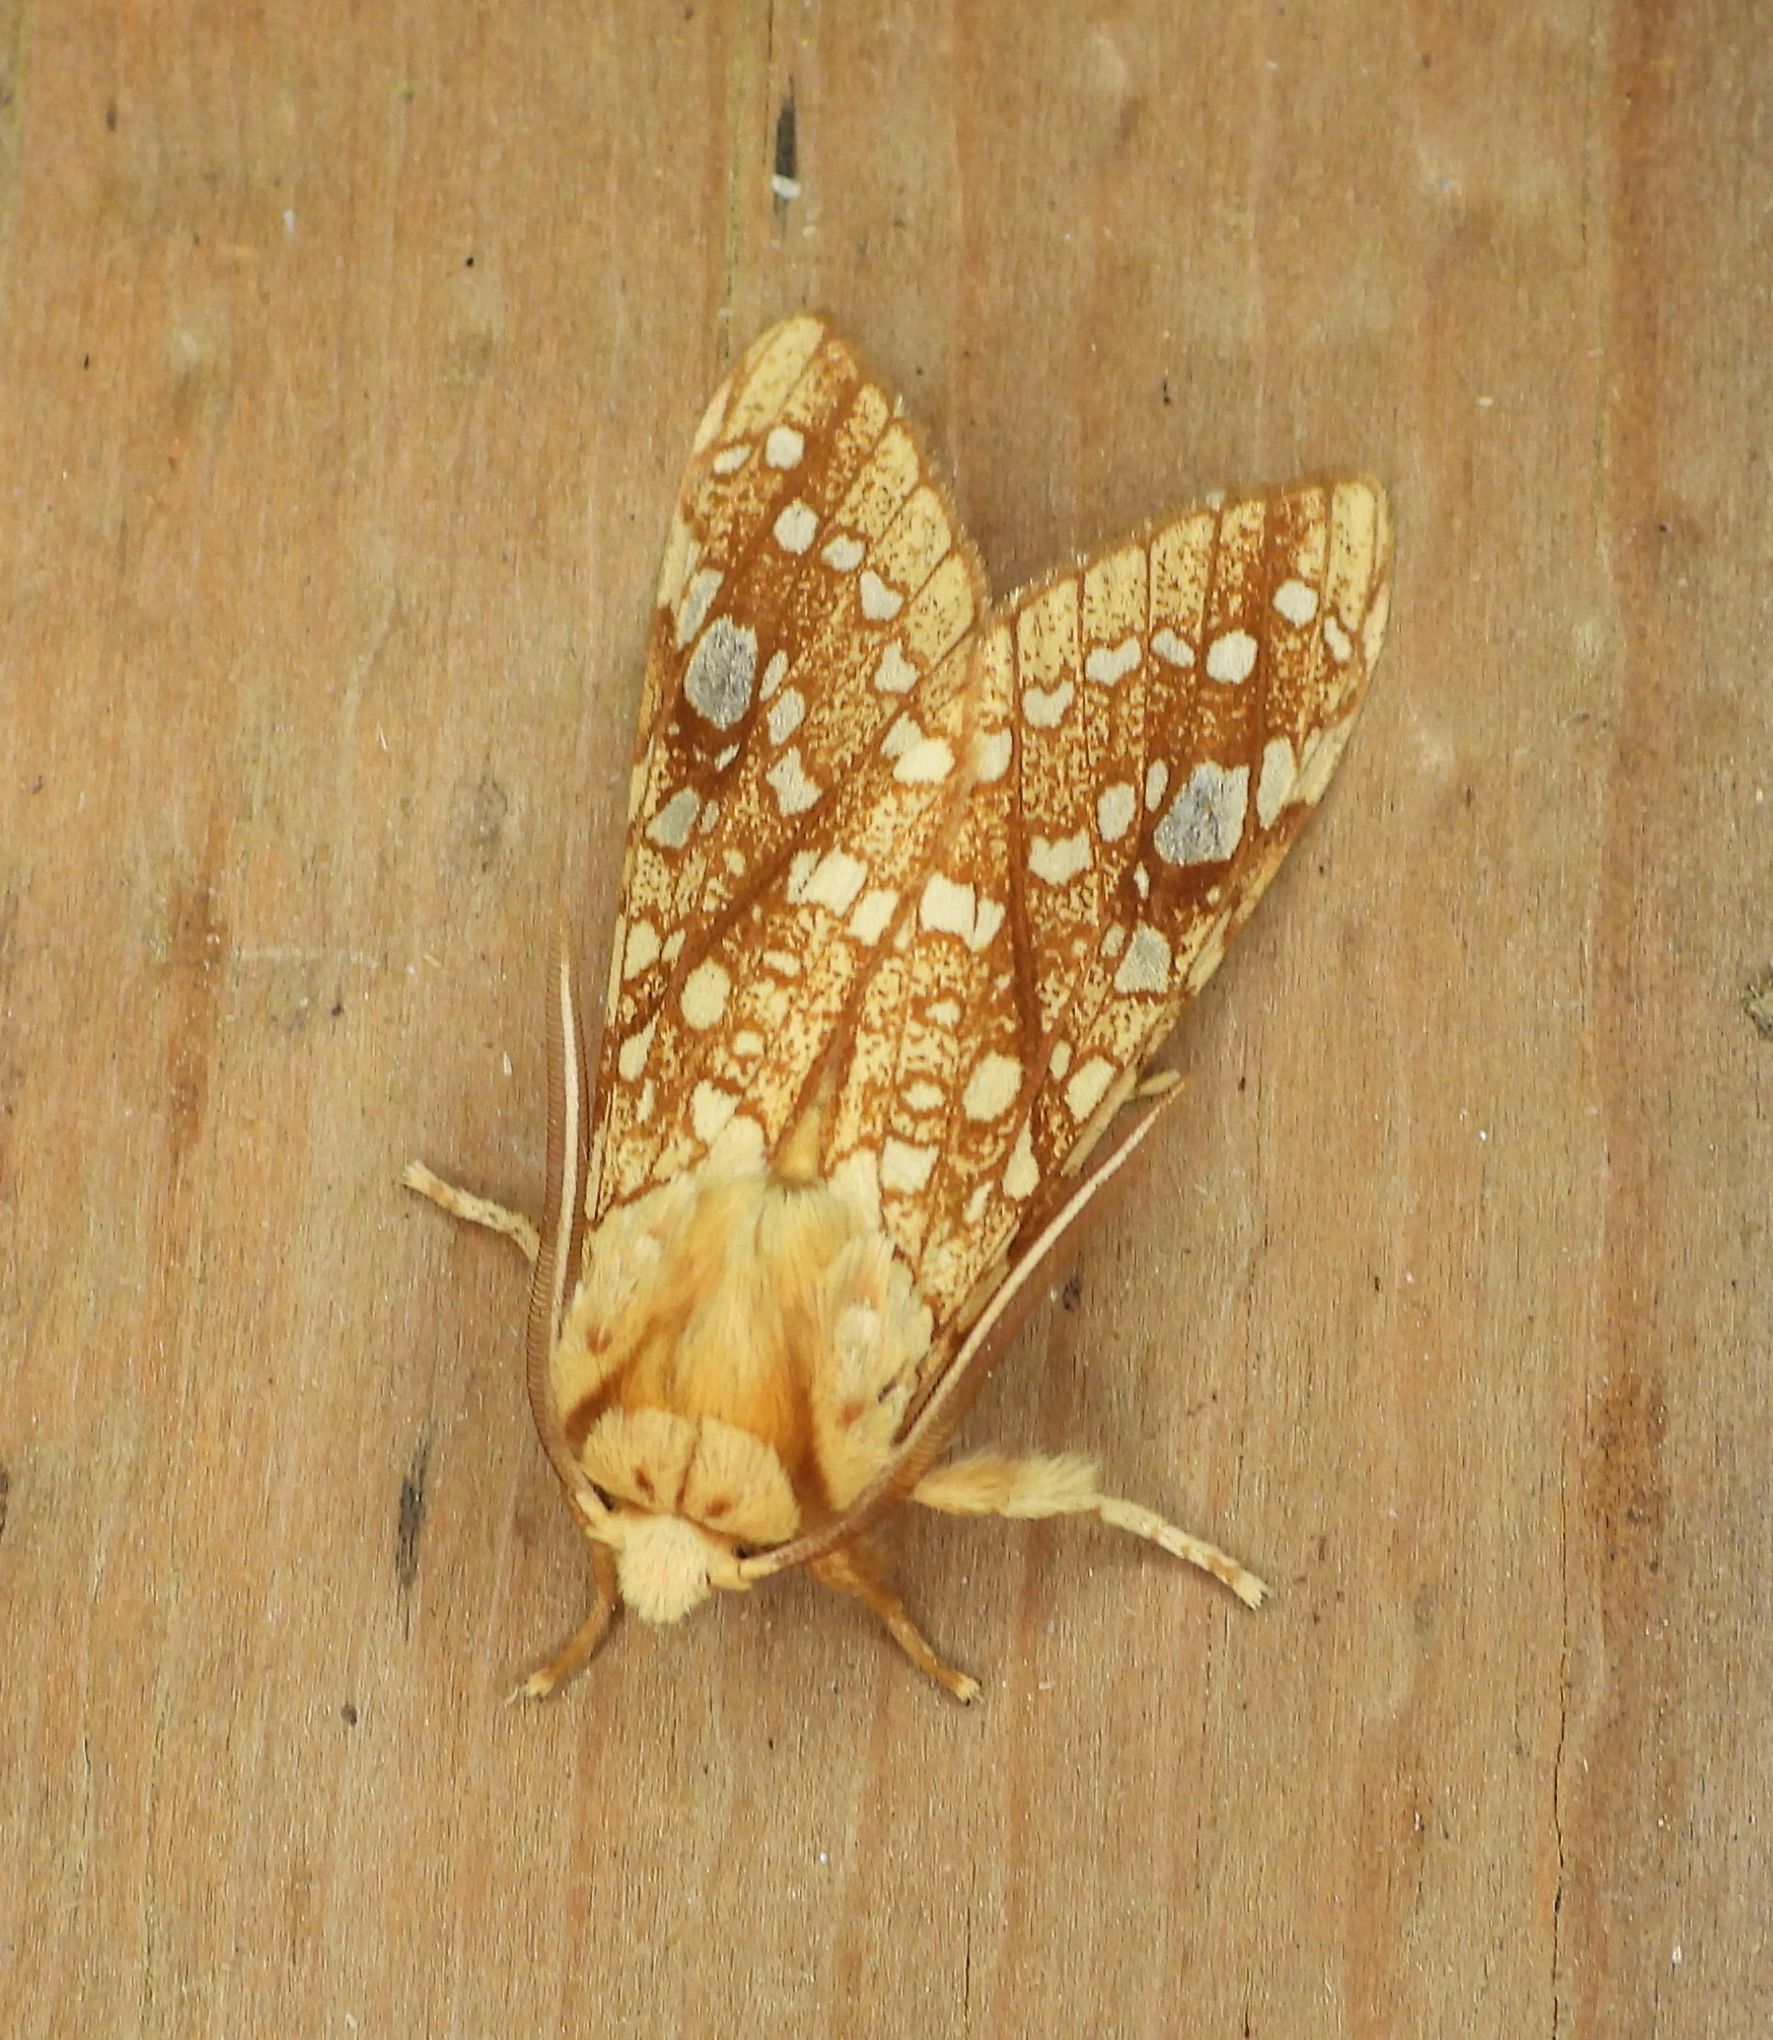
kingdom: Animalia
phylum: Arthropoda
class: Insecta
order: Lepidoptera
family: Erebidae
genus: Lophocampa
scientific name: Lophocampa caryae
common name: Hickory tussock moth
